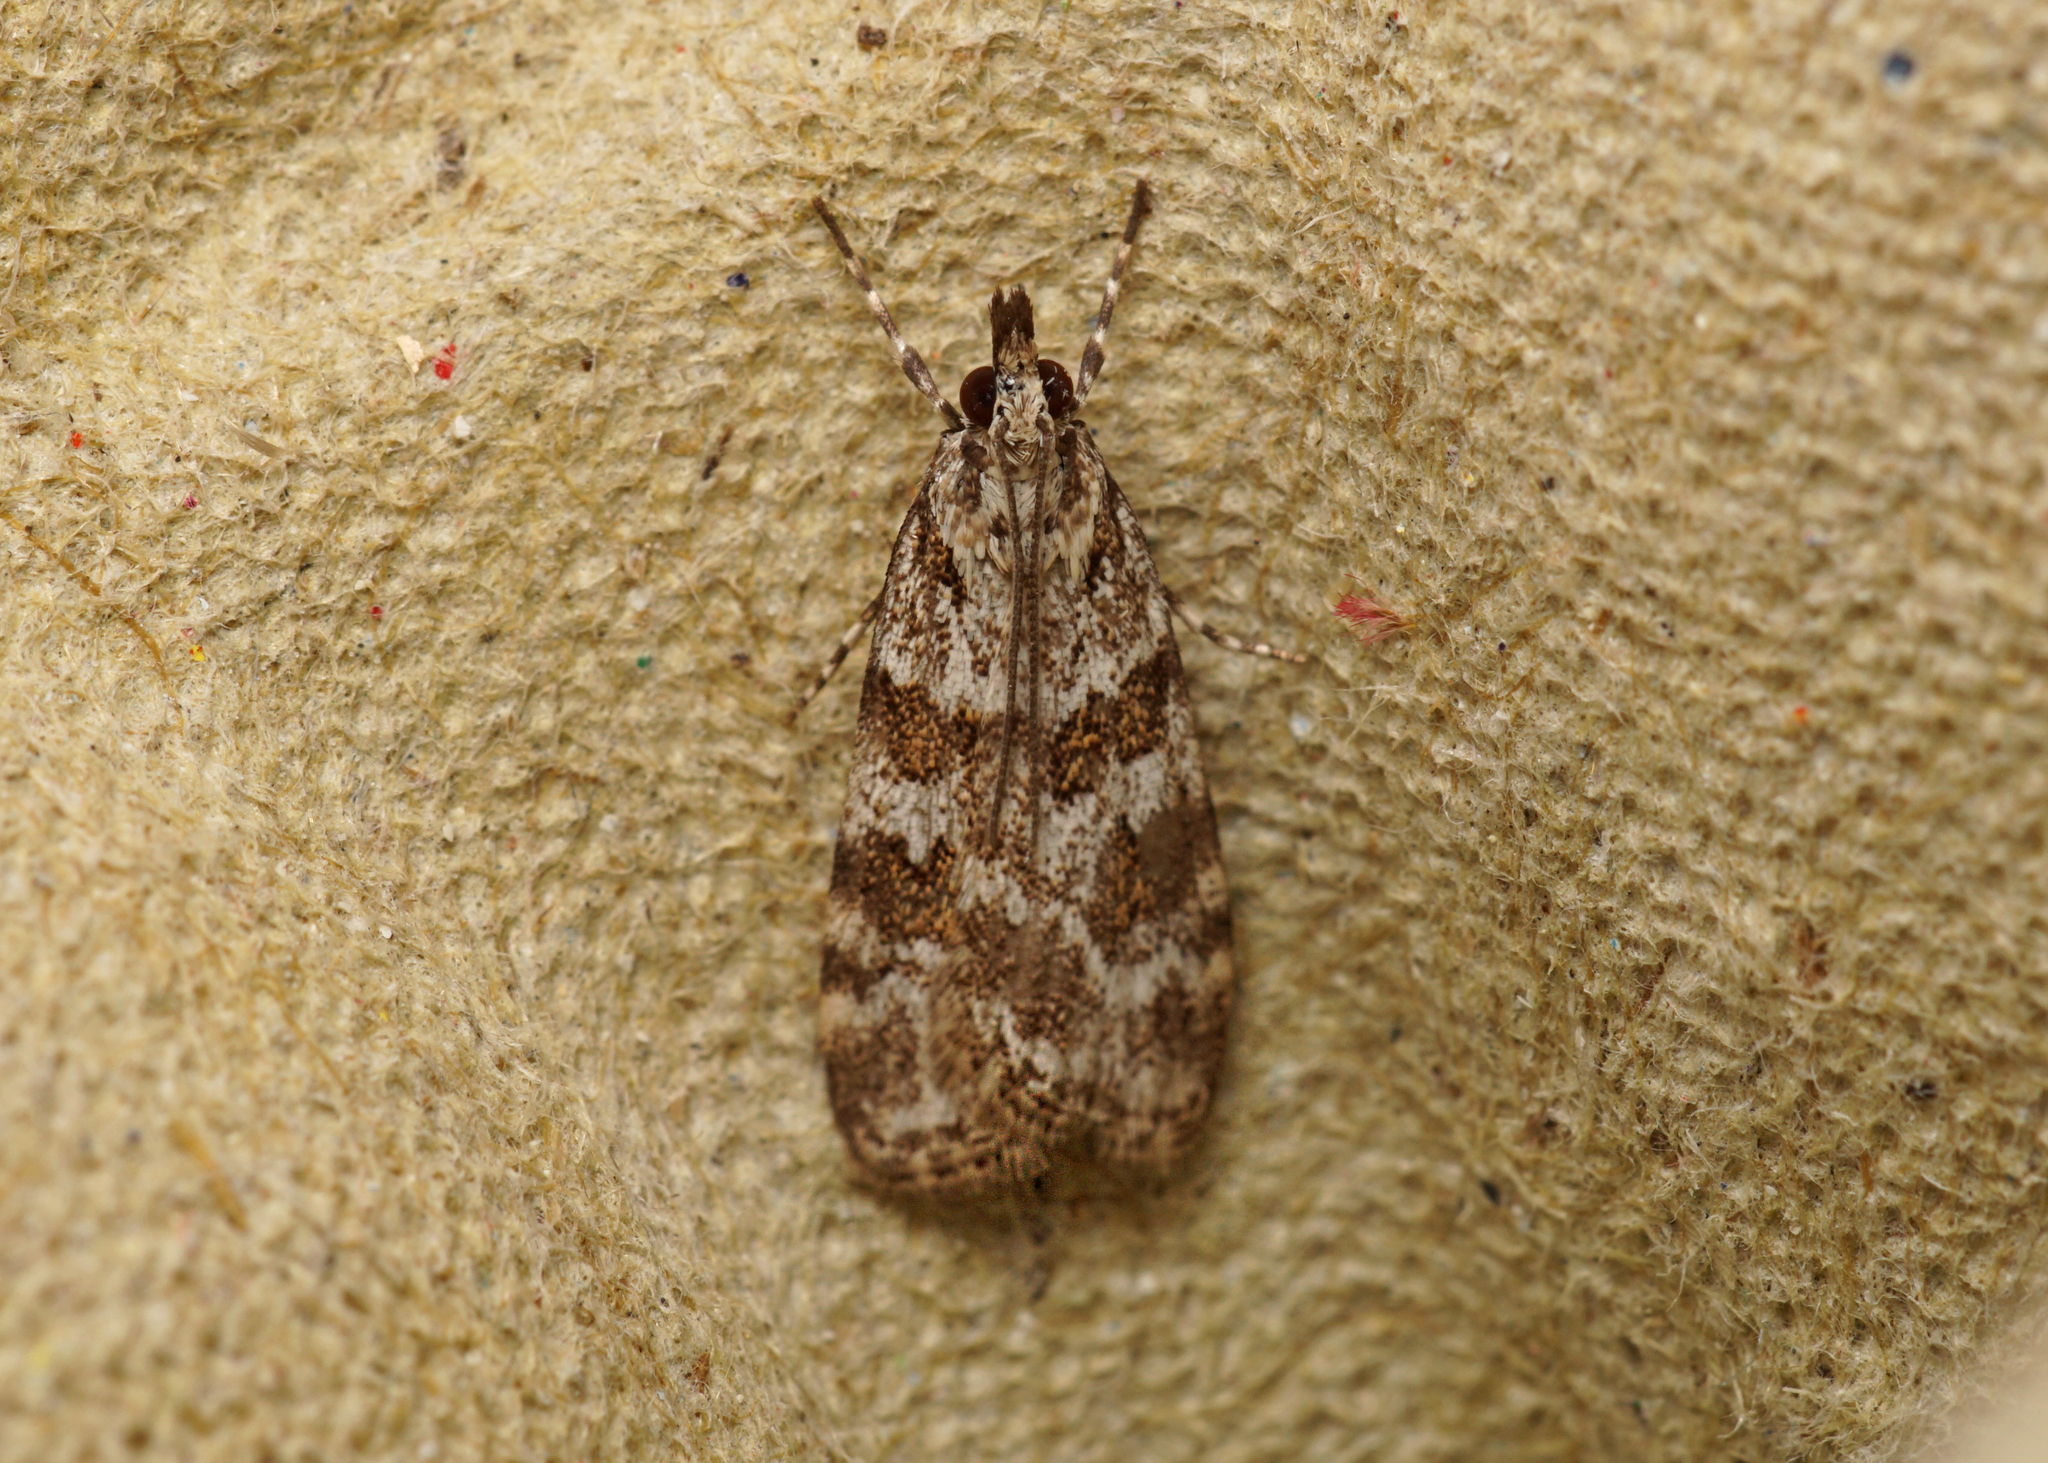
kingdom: Animalia
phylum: Arthropoda
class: Insecta
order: Lepidoptera
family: Crambidae
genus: Scoparia
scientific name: Scoparia pyralella
